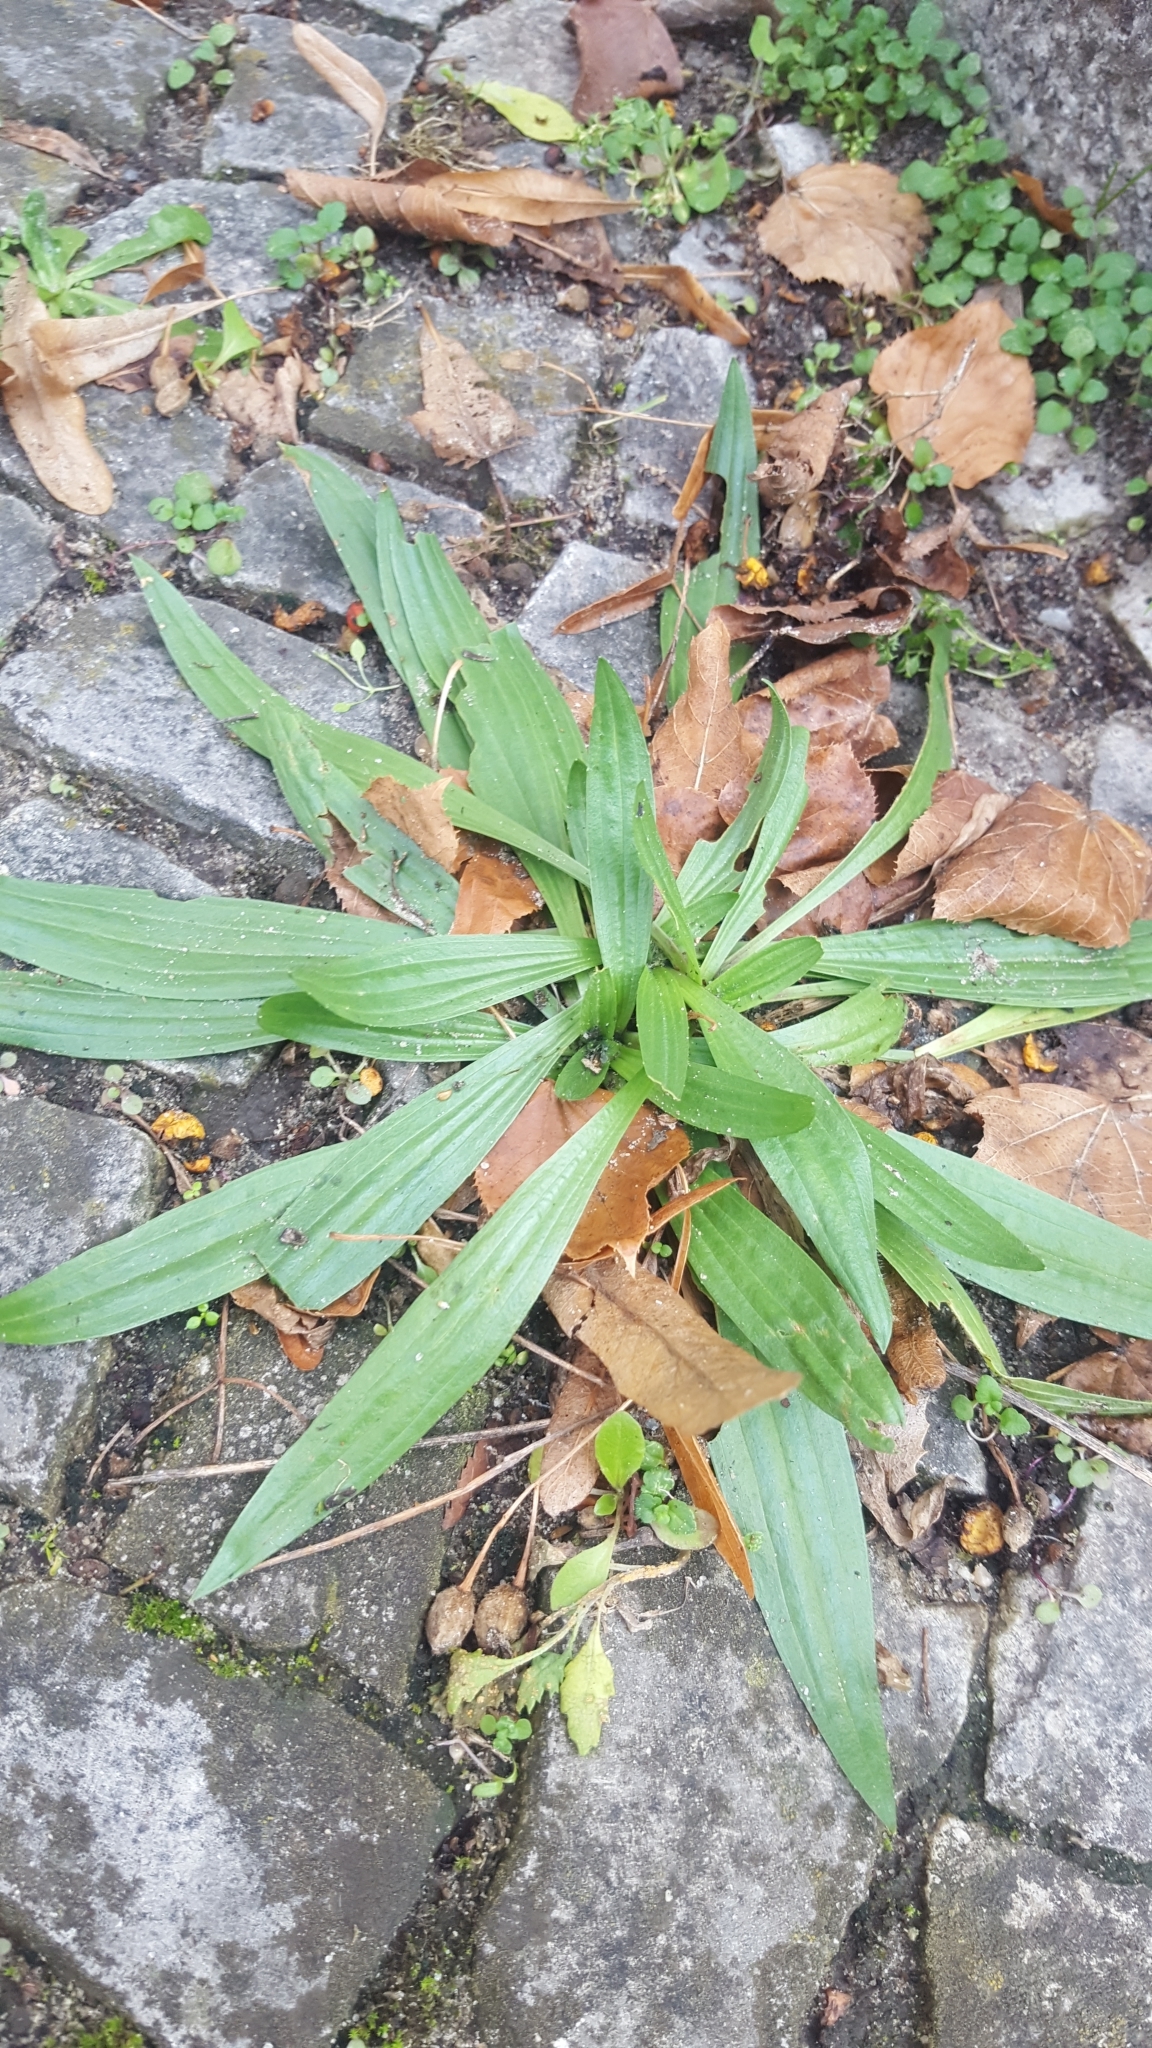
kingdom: Plantae
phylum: Tracheophyta
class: Magnoliopsida
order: Lamiales
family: Plantaginaceae
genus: Plantago
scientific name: Plantago lanceolata
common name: Ribwort plantain
